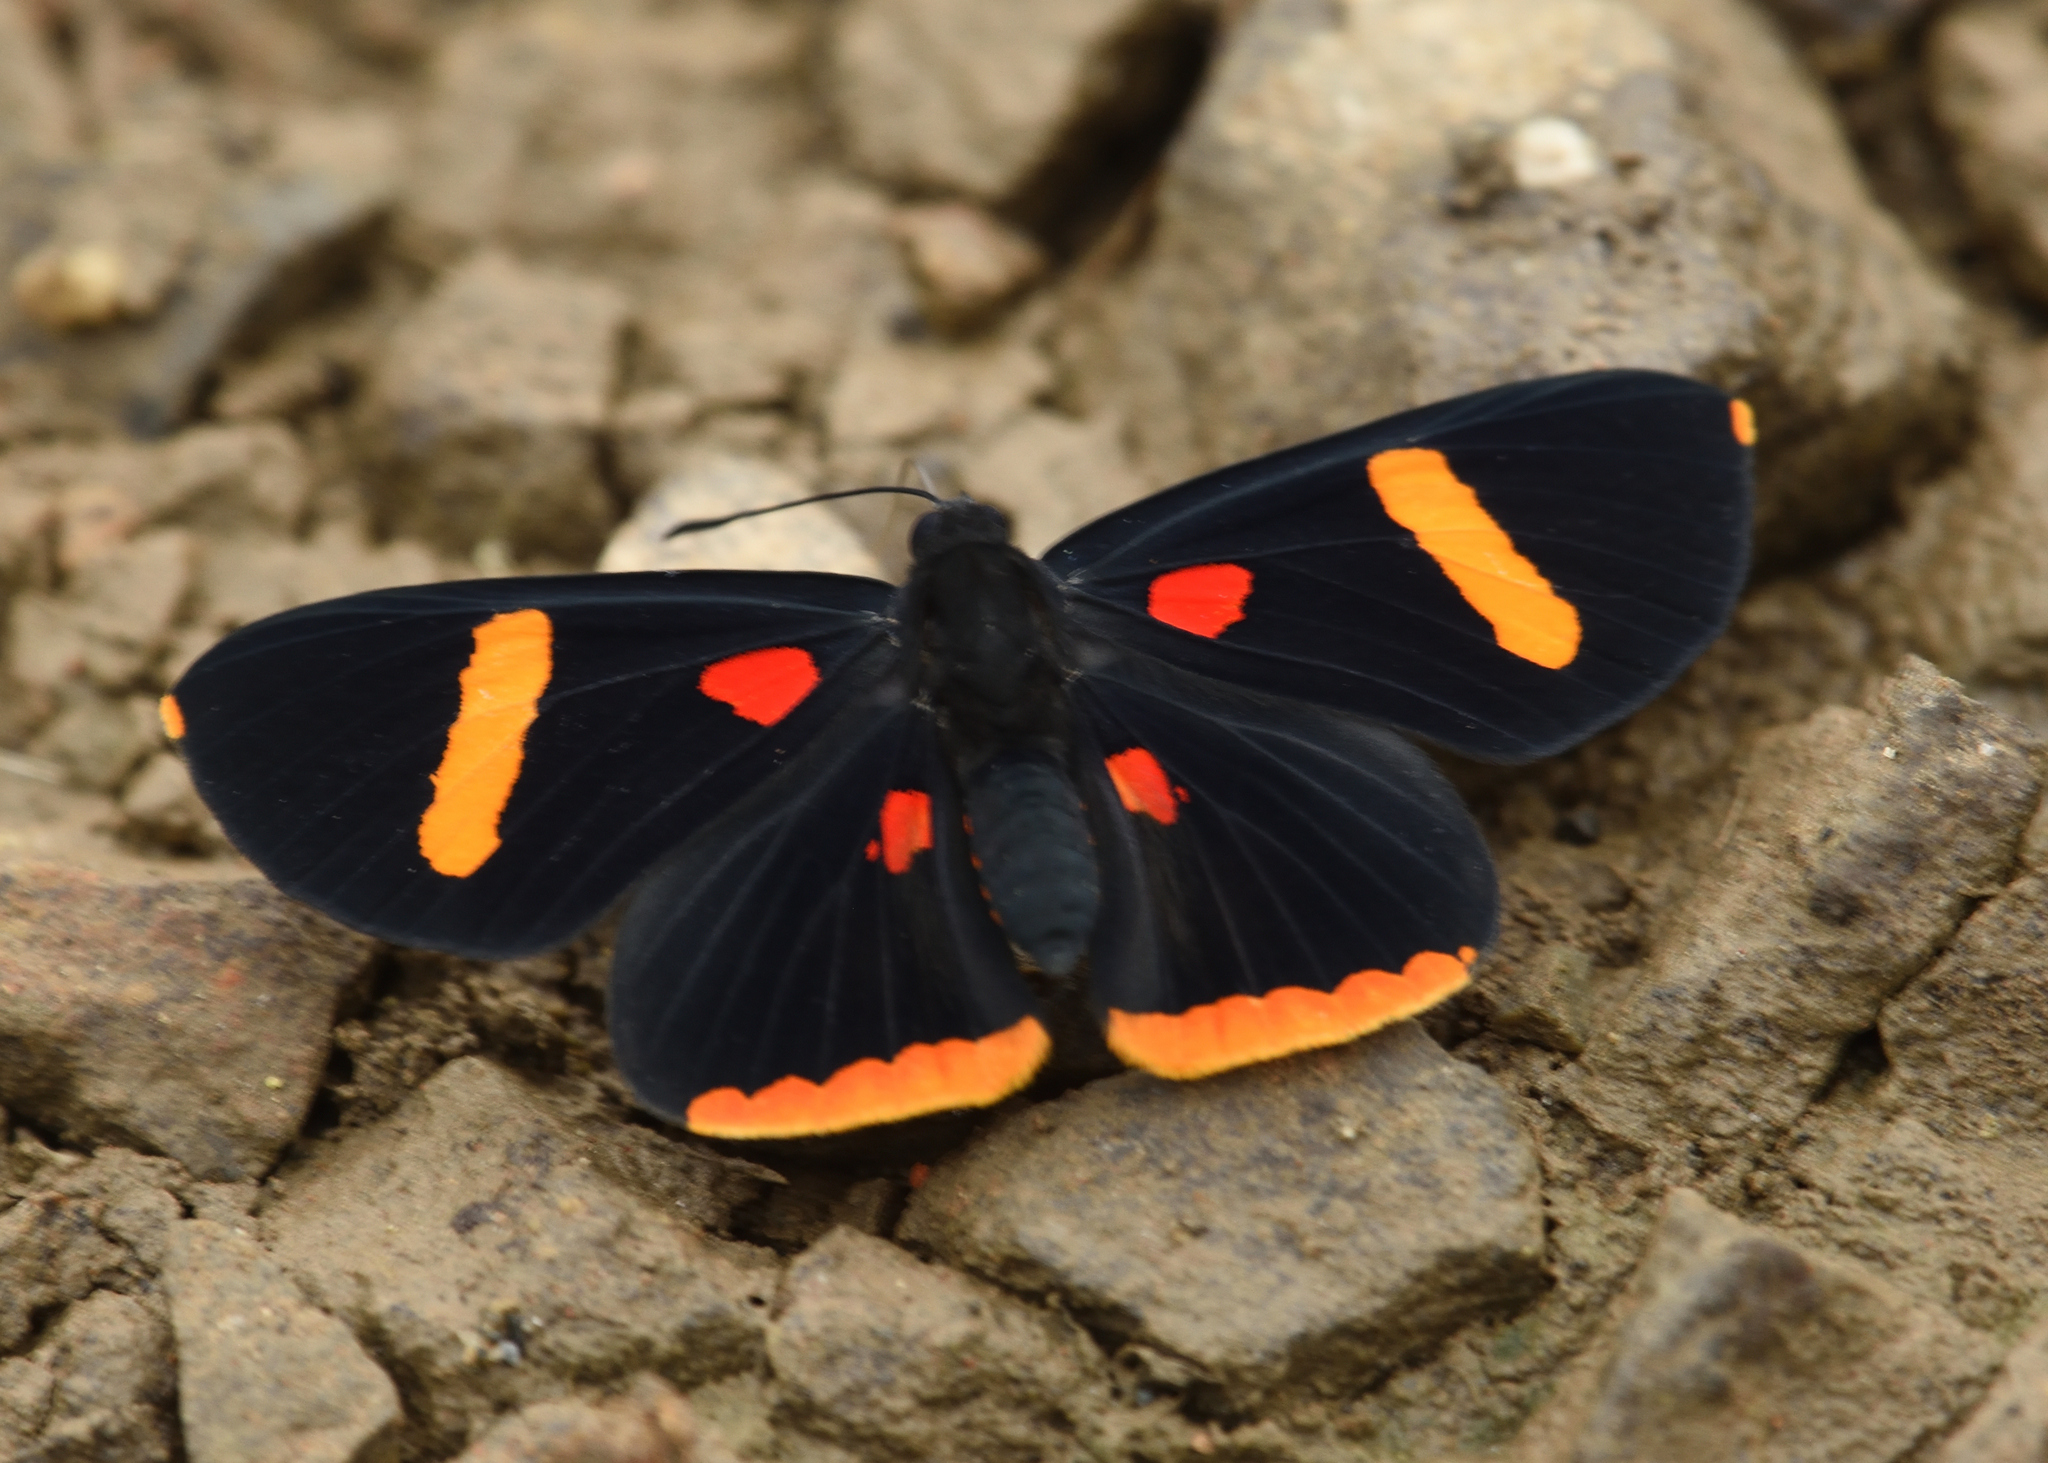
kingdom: Animalia
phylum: Arthropoda
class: Insecta
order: Lepidoptera
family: Lycaenidae
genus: Melanis
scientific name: Melanis electron
